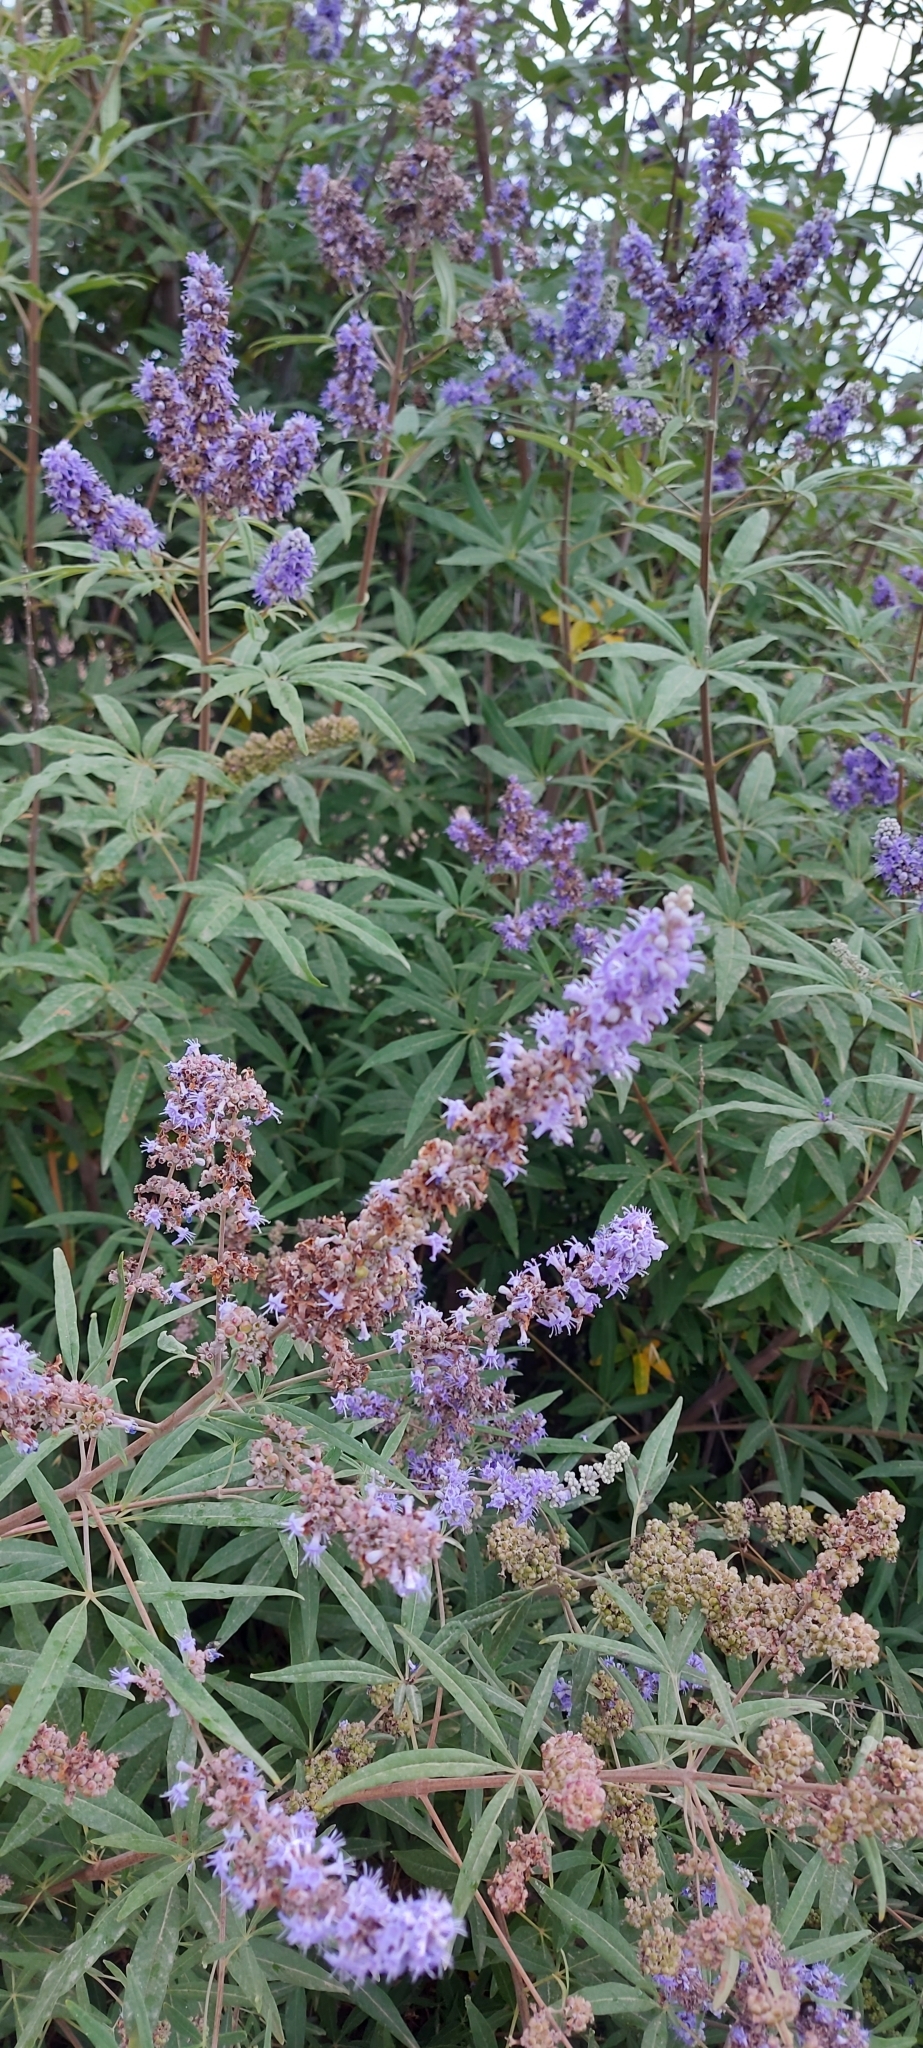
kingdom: Plantae
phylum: Tracheophyta
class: Magnoliopsida
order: Lamiales
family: Lamiaceae
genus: Vitex
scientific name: Vitex agnus-castus
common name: Chasteberry
